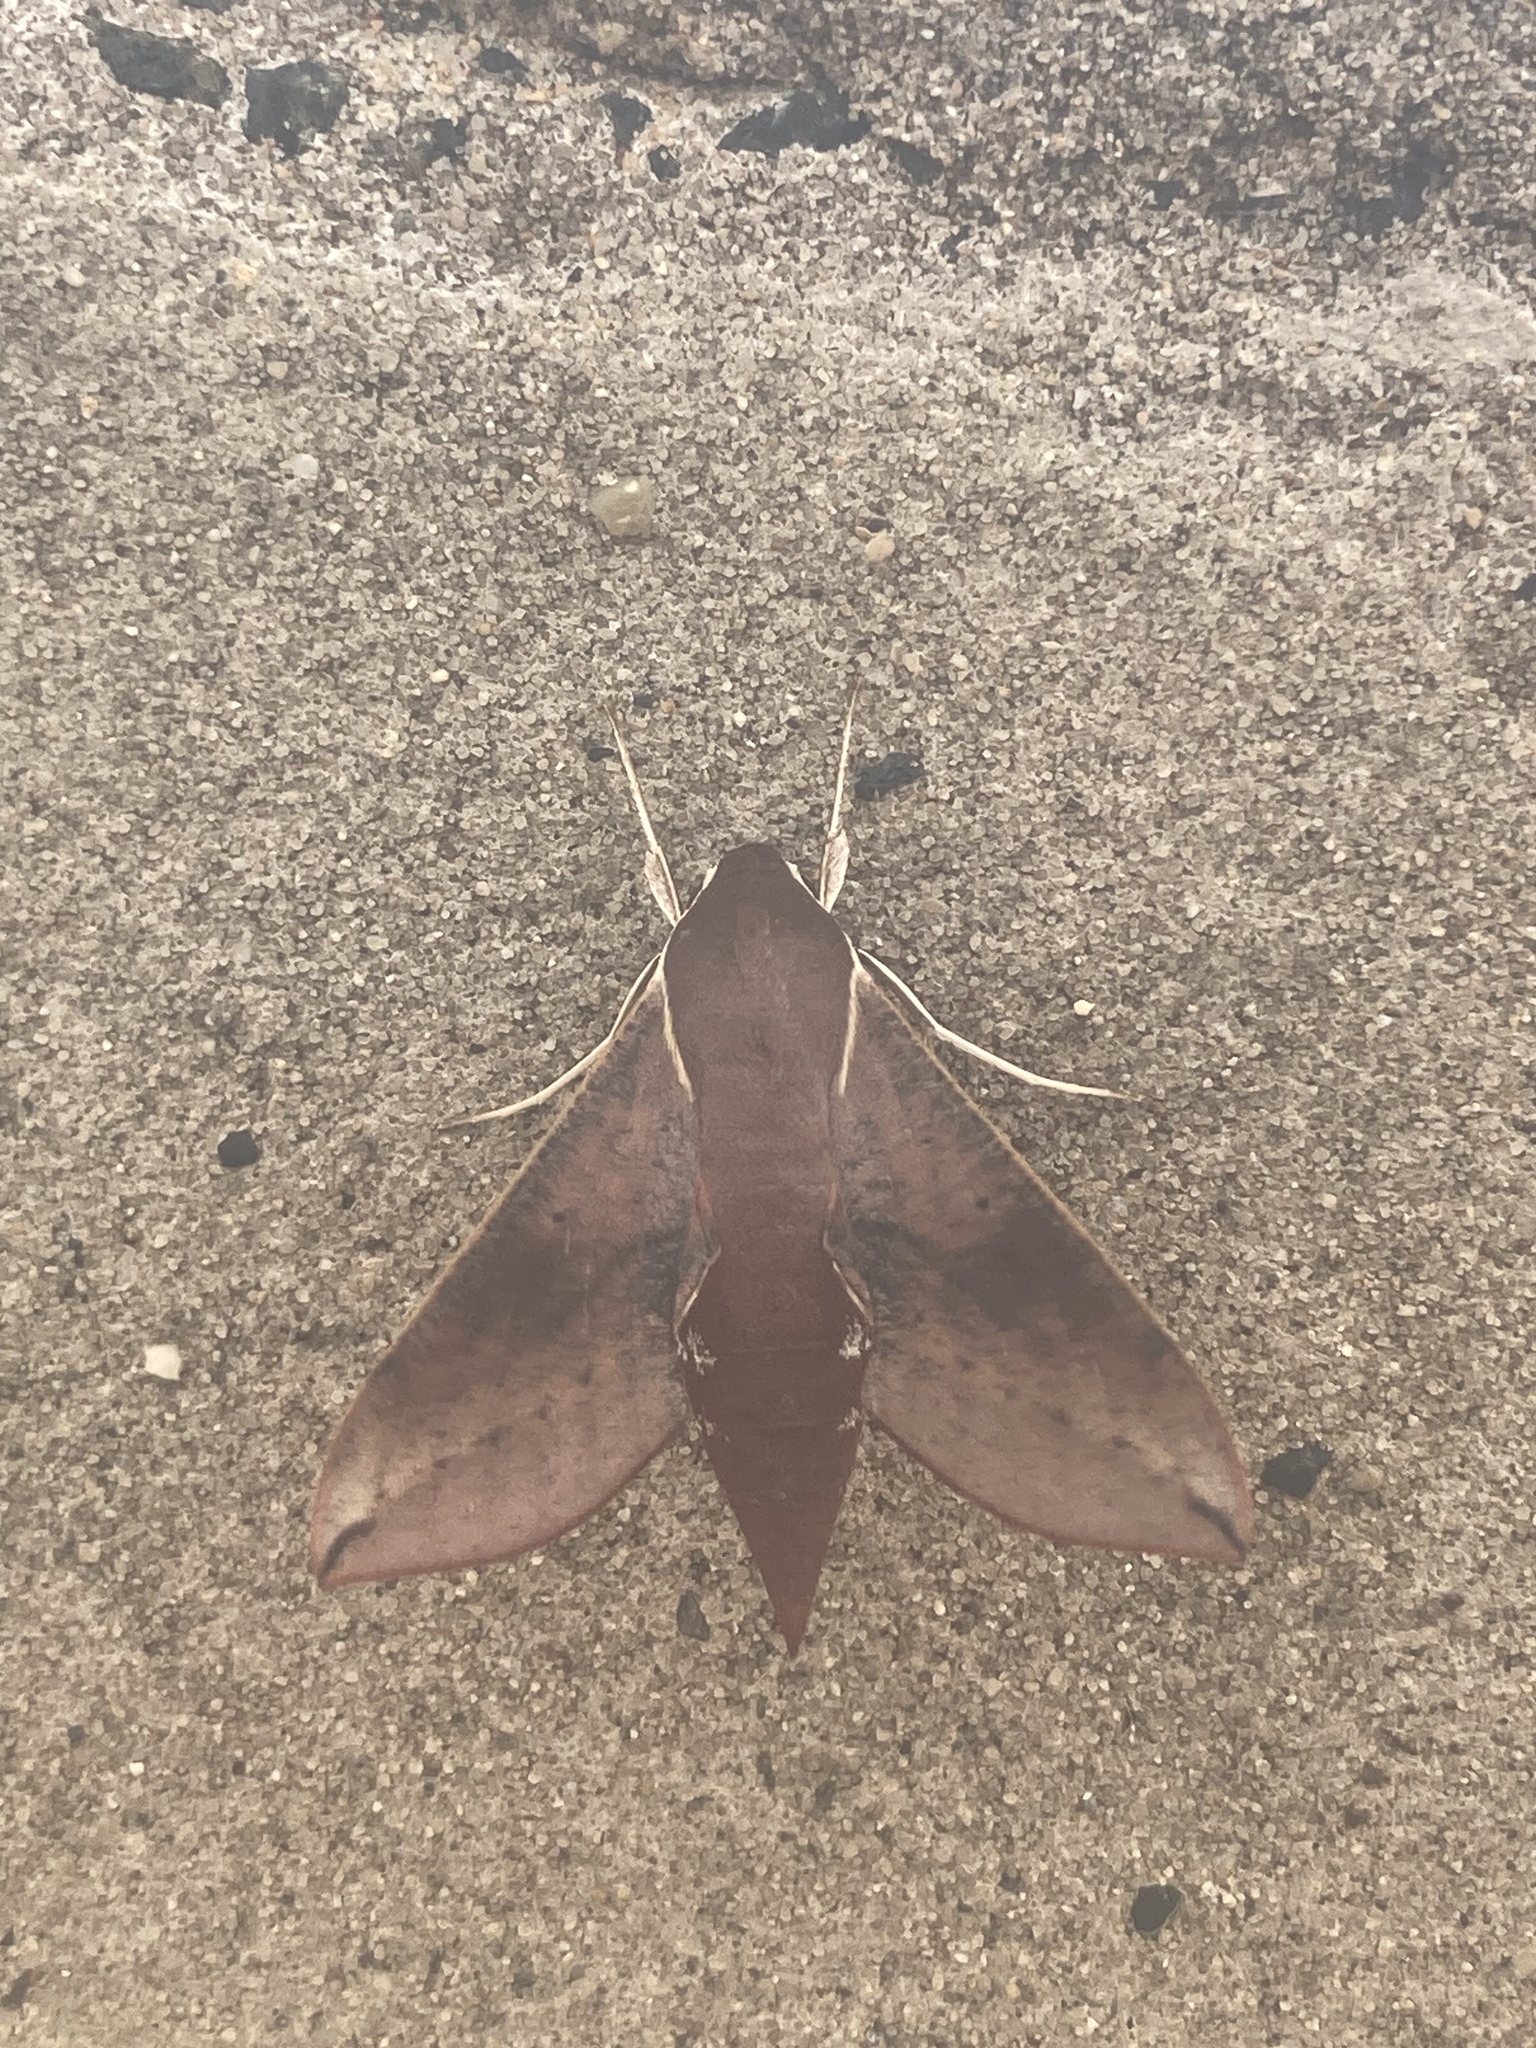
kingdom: Animalia
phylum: Arthropoda
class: Insecta
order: Lepidoptera
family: Sphingidae
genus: Hippotion
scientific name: Hippotion scrofa
